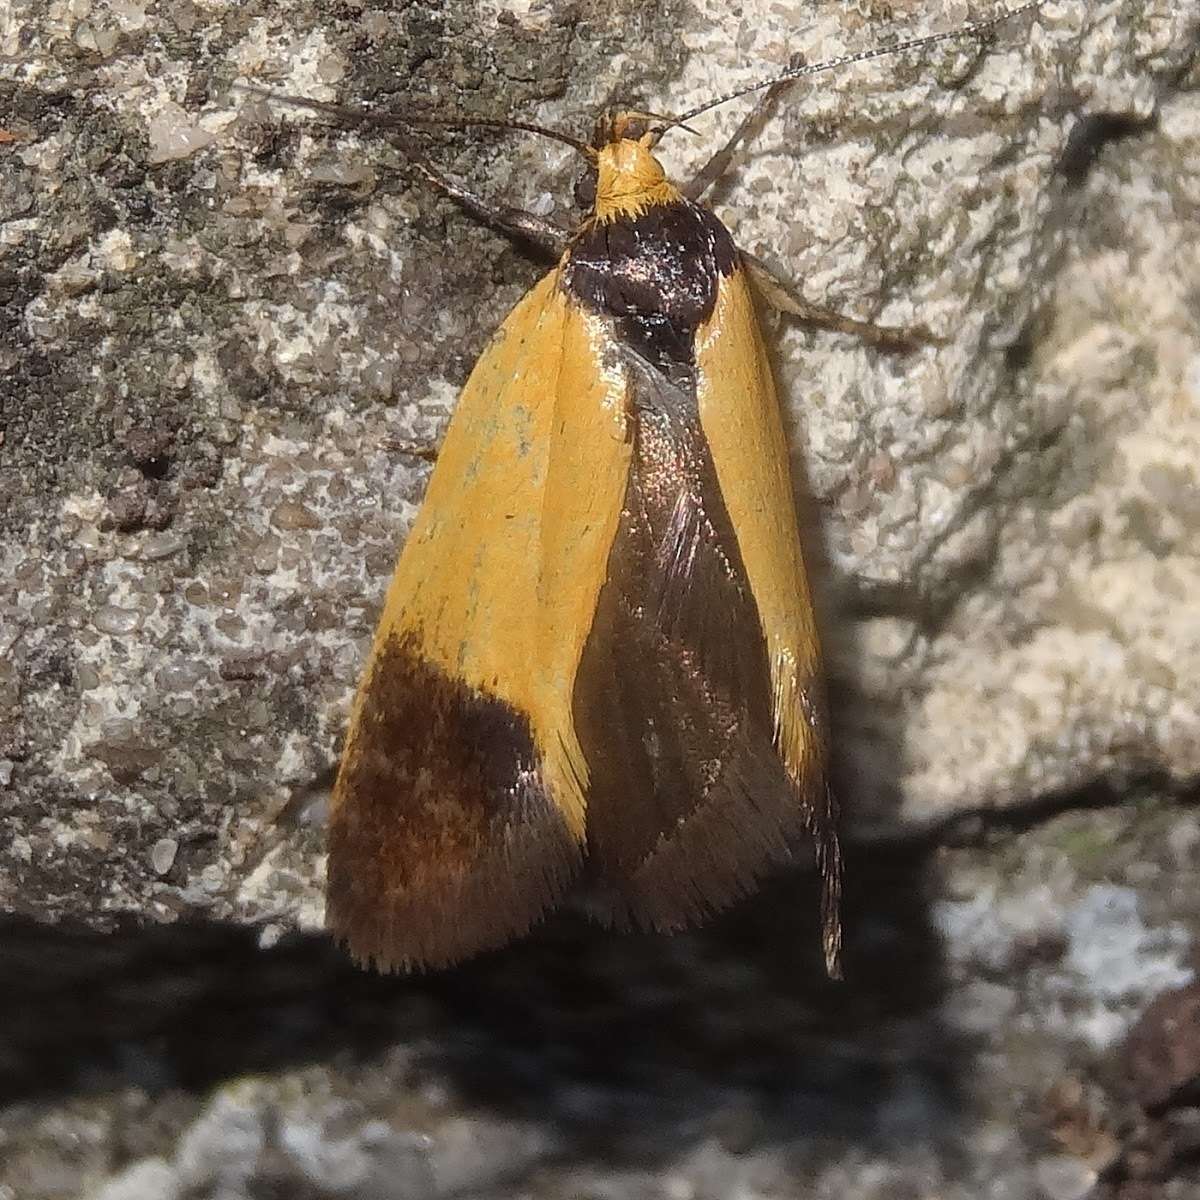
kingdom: Animalia
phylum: Arthropoda
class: Insecta
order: Lepidoptera
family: Oecophoridae
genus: Merocroca
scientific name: Merocroca automima
